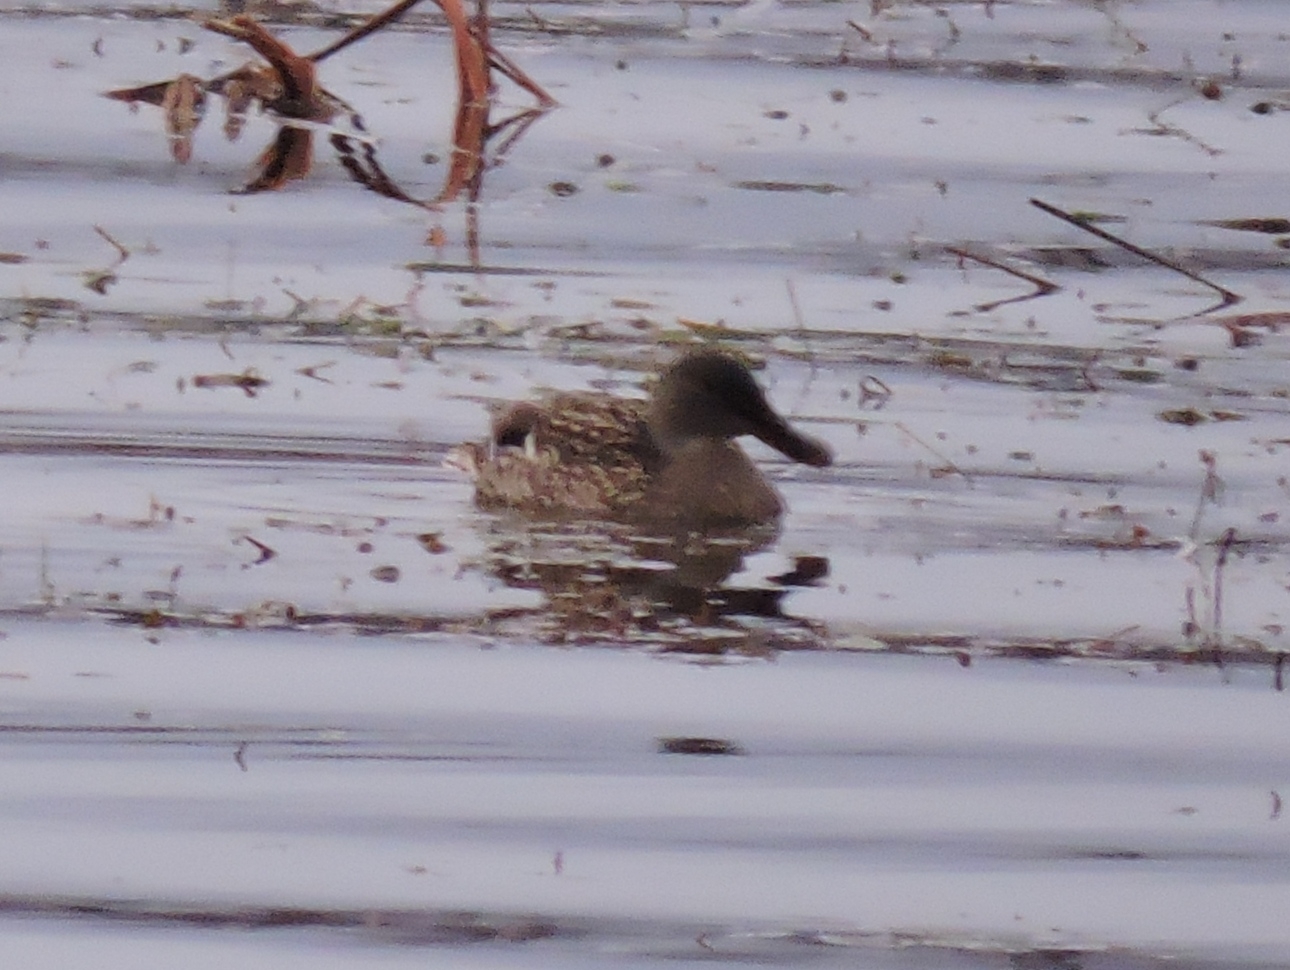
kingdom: Animalia
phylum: Chordata
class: Aves
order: Anseriformes
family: Anatidae
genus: Spatula
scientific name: Spatula clypeata
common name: Northern shoveler
